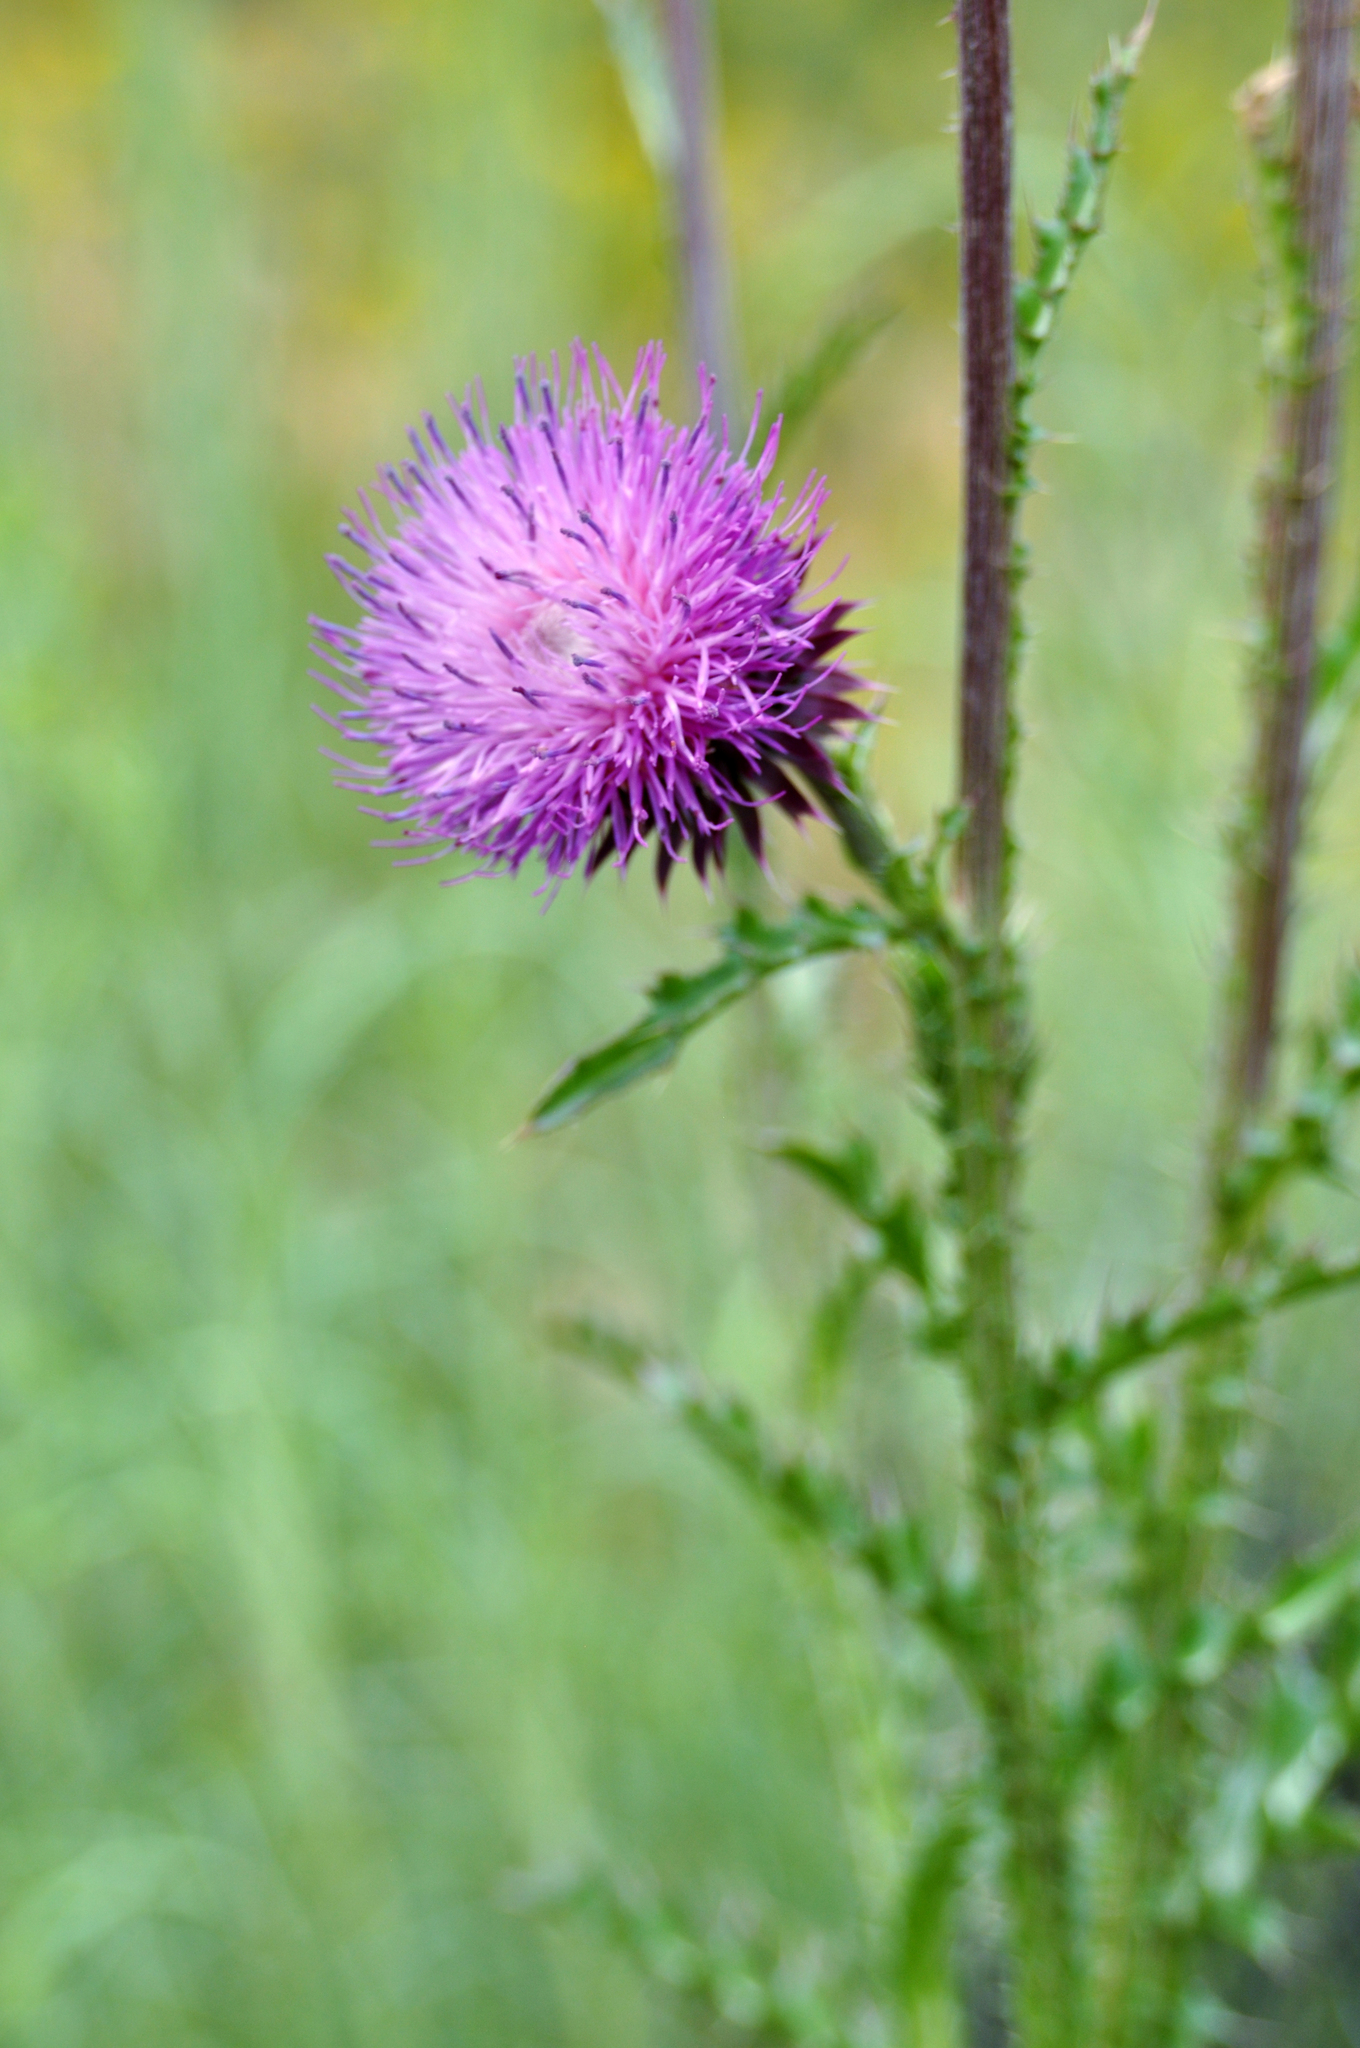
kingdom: Plantae
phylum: Tracheophyta
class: Magnoliopsida
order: Asterales
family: Asteraceae
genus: Carduus
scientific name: Carduus nutans
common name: Musk thistle
